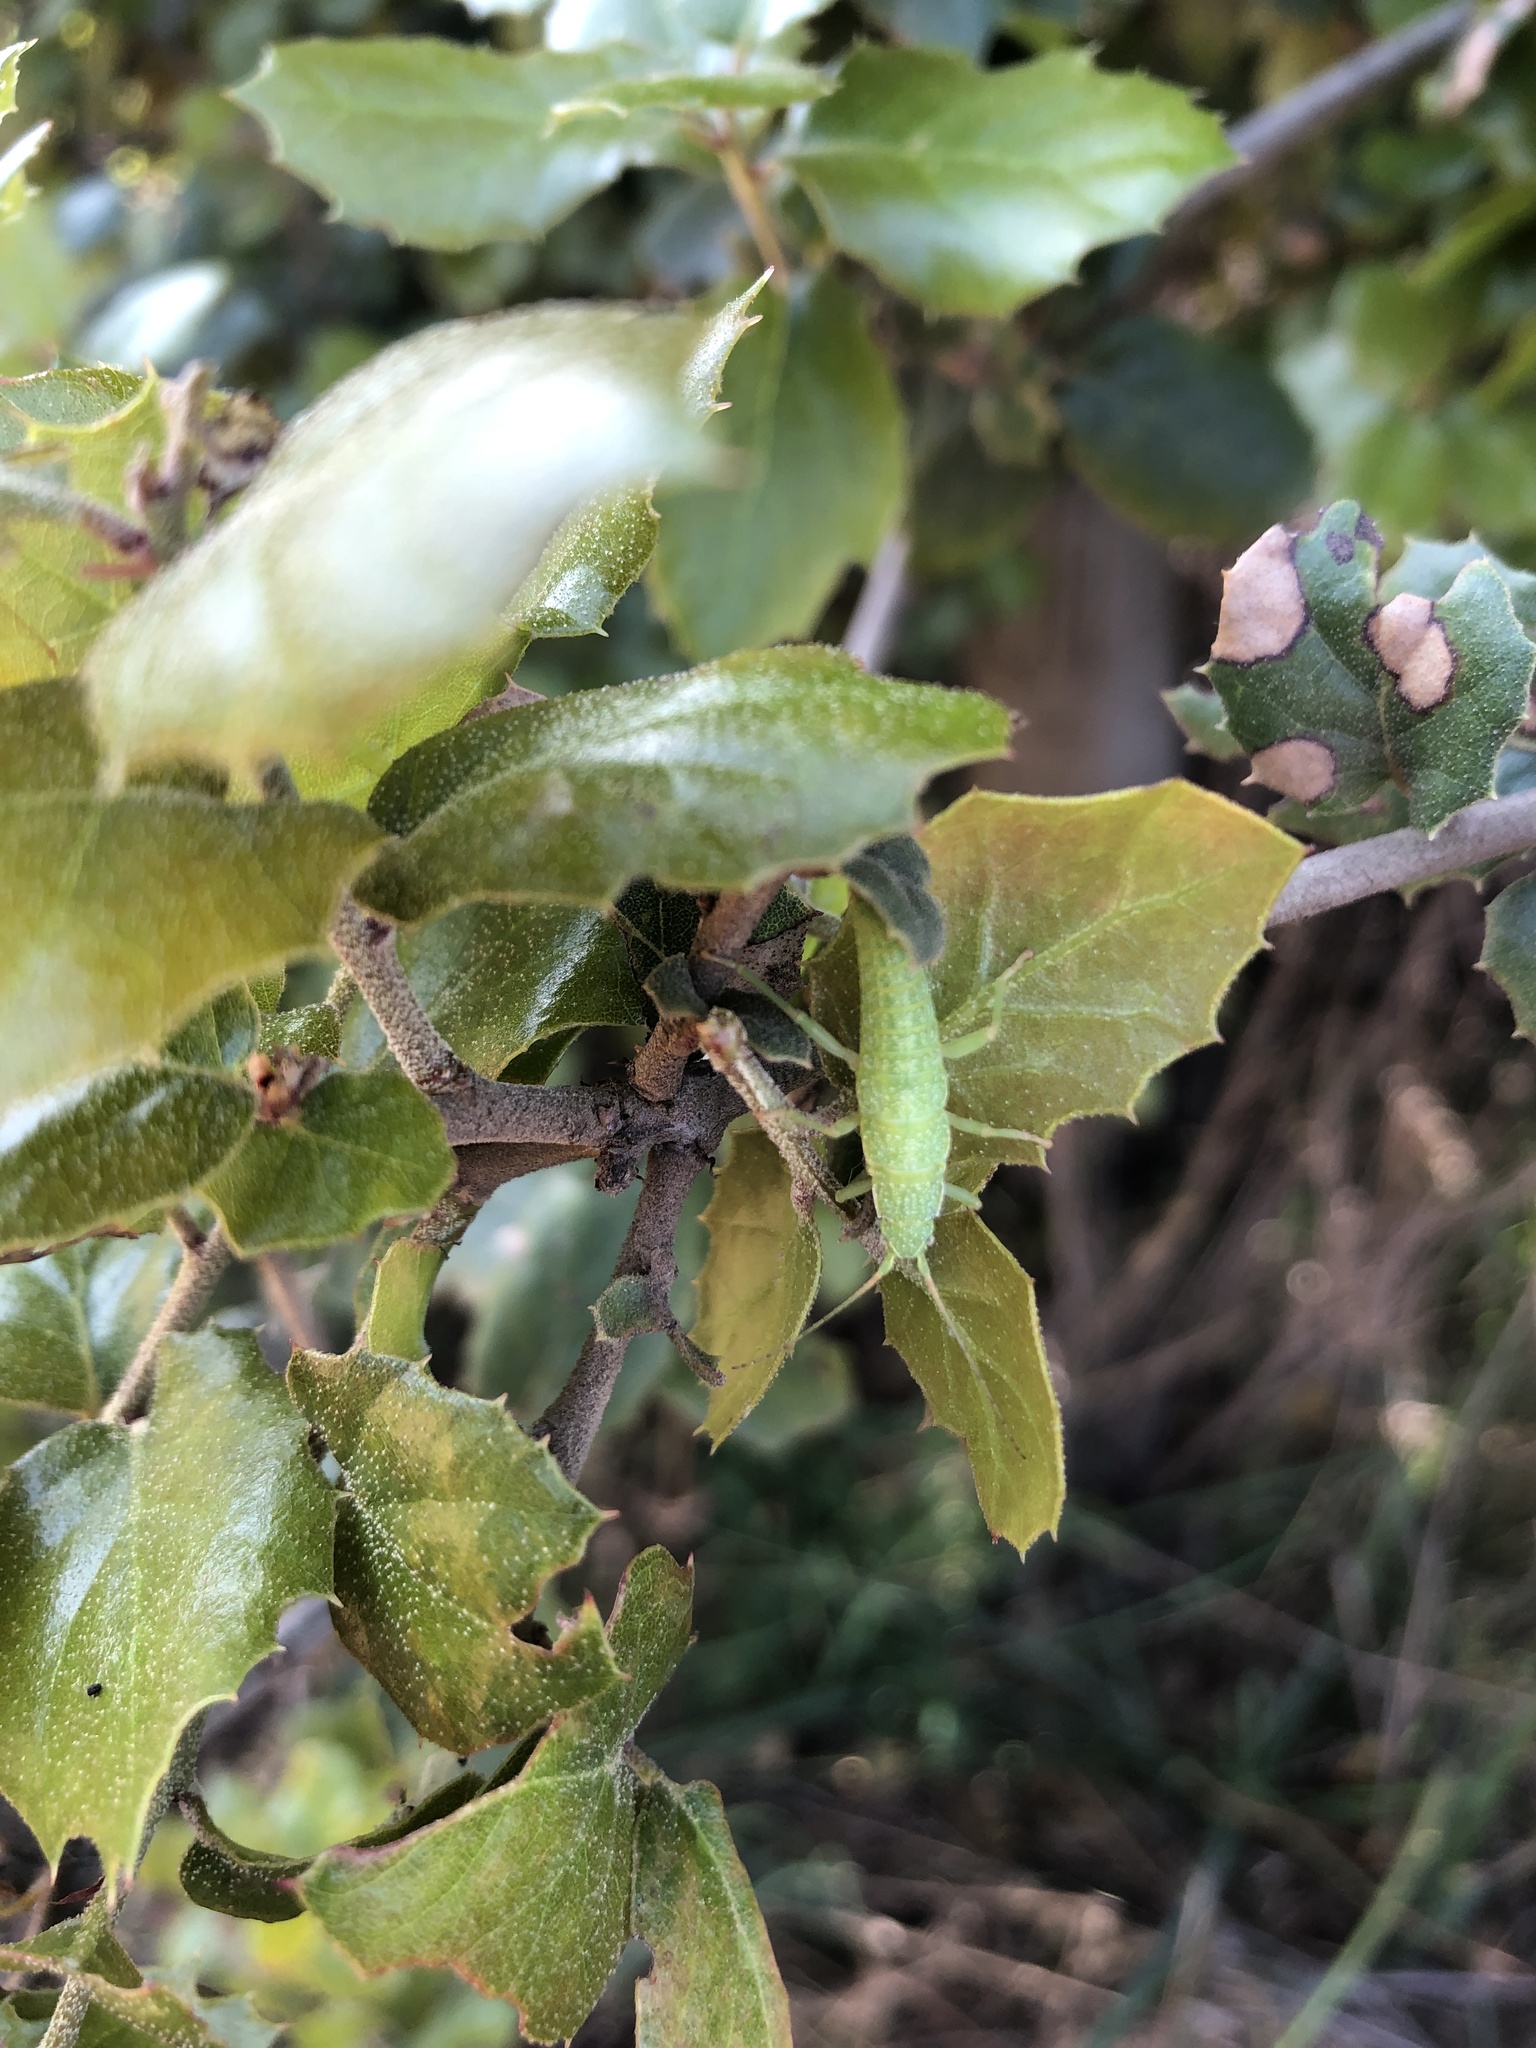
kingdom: Animalia
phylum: Arthropoda
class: Insecta
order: Phasmida
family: Timematidae
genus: Timema
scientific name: Timema californicum
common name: California timema
